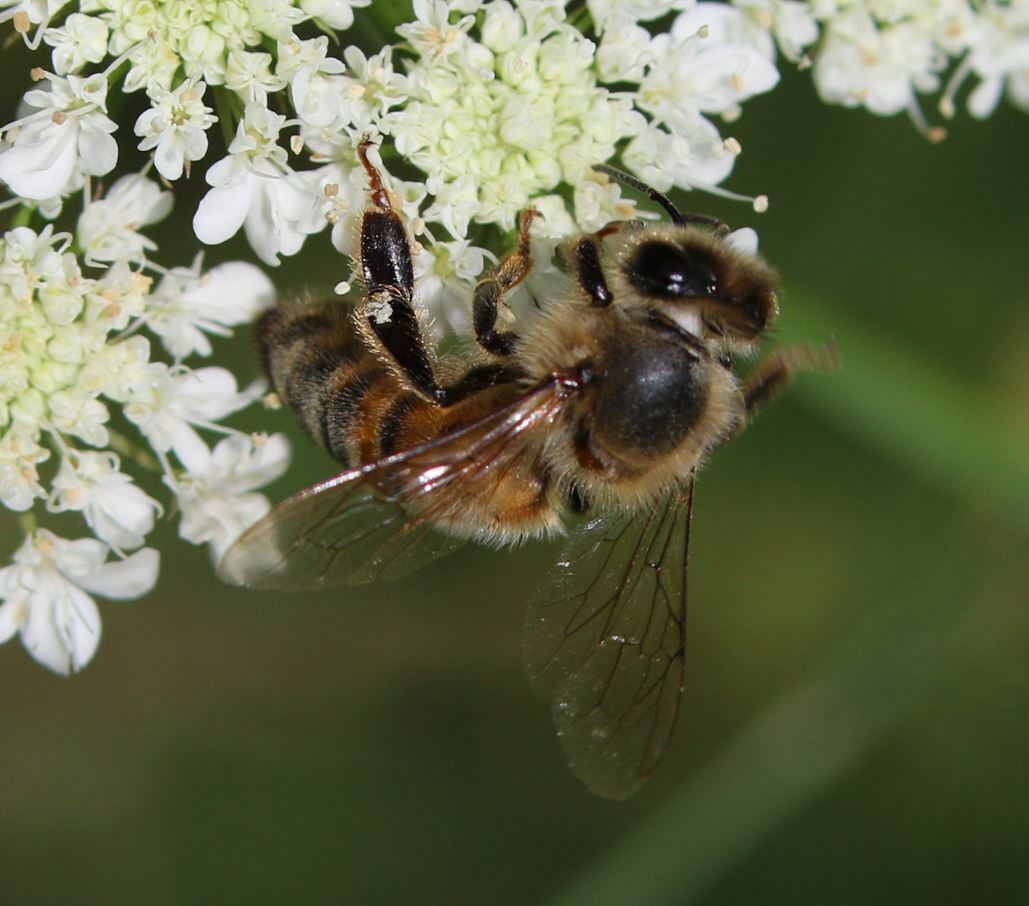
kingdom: Animalia
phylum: Arthropoda
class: Insecta
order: Hymenoptera
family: Apidae
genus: Apis
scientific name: Apis mellifera
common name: Honey bee
